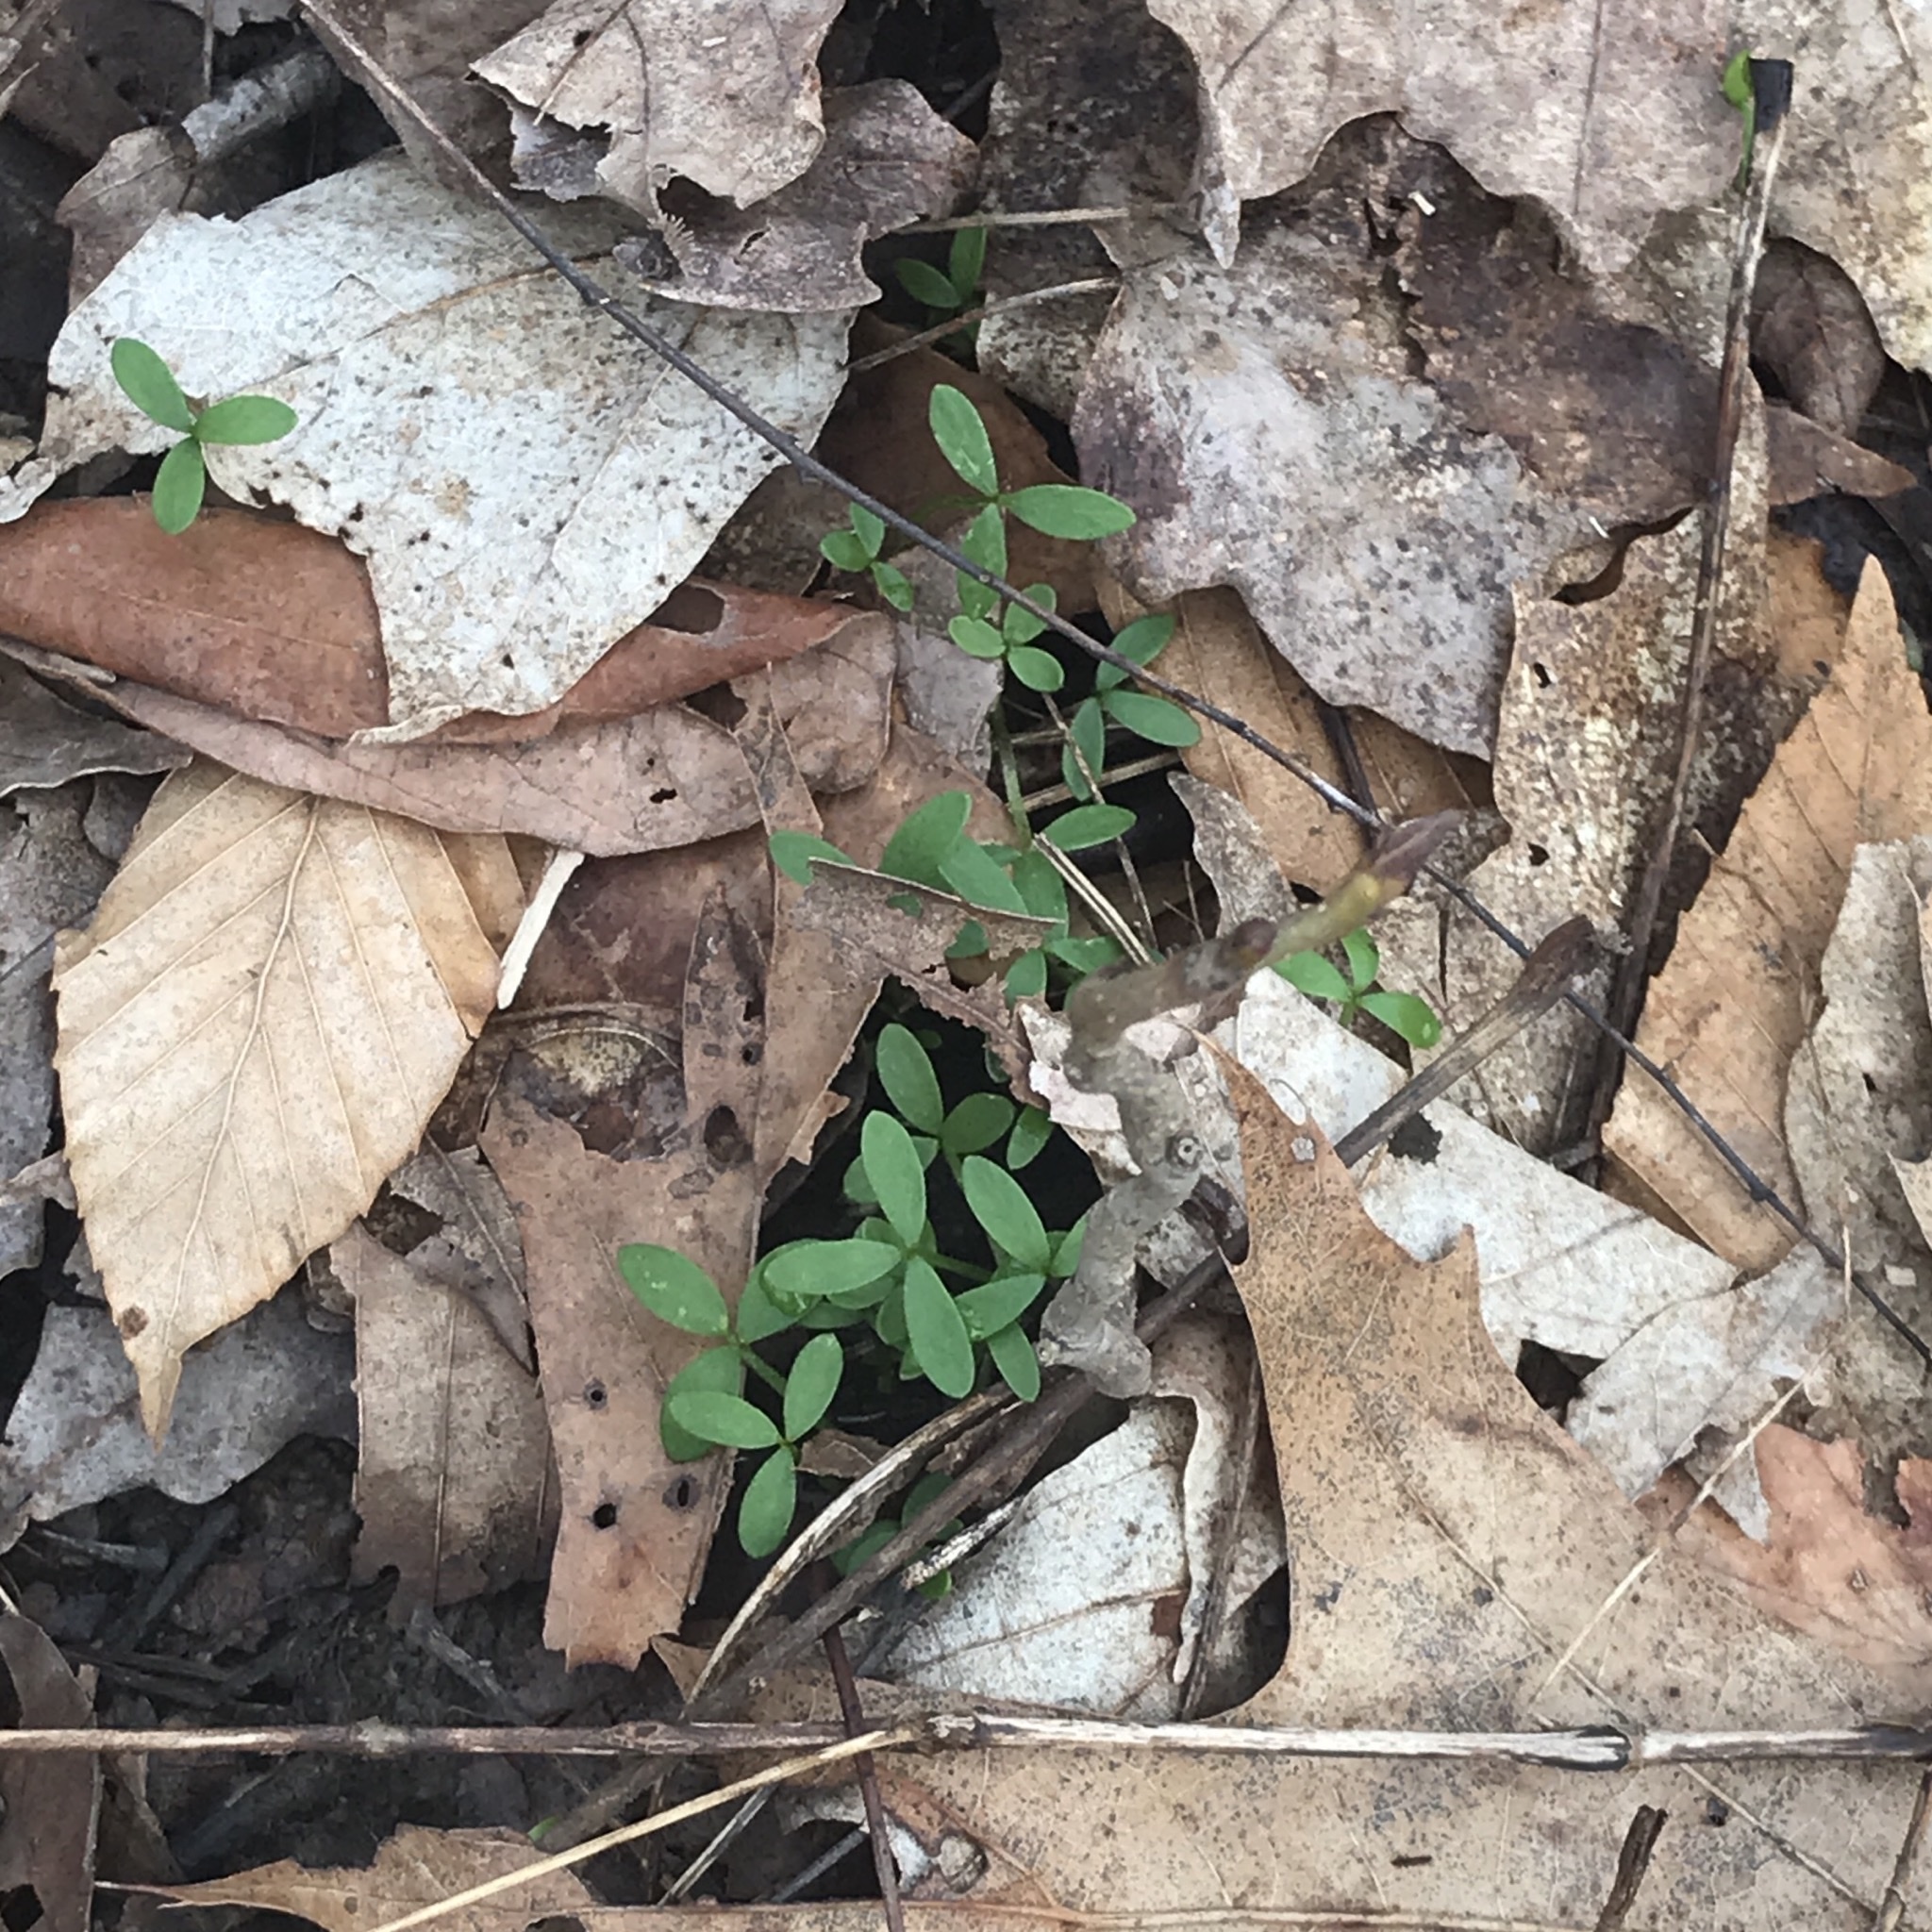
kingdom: Plantae
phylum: Tracheophyta
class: Magnoliopsida
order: Brassicales
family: Limnanthaceae
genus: Floerkea
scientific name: Floerkea proserpinacoides
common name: False mermaid
